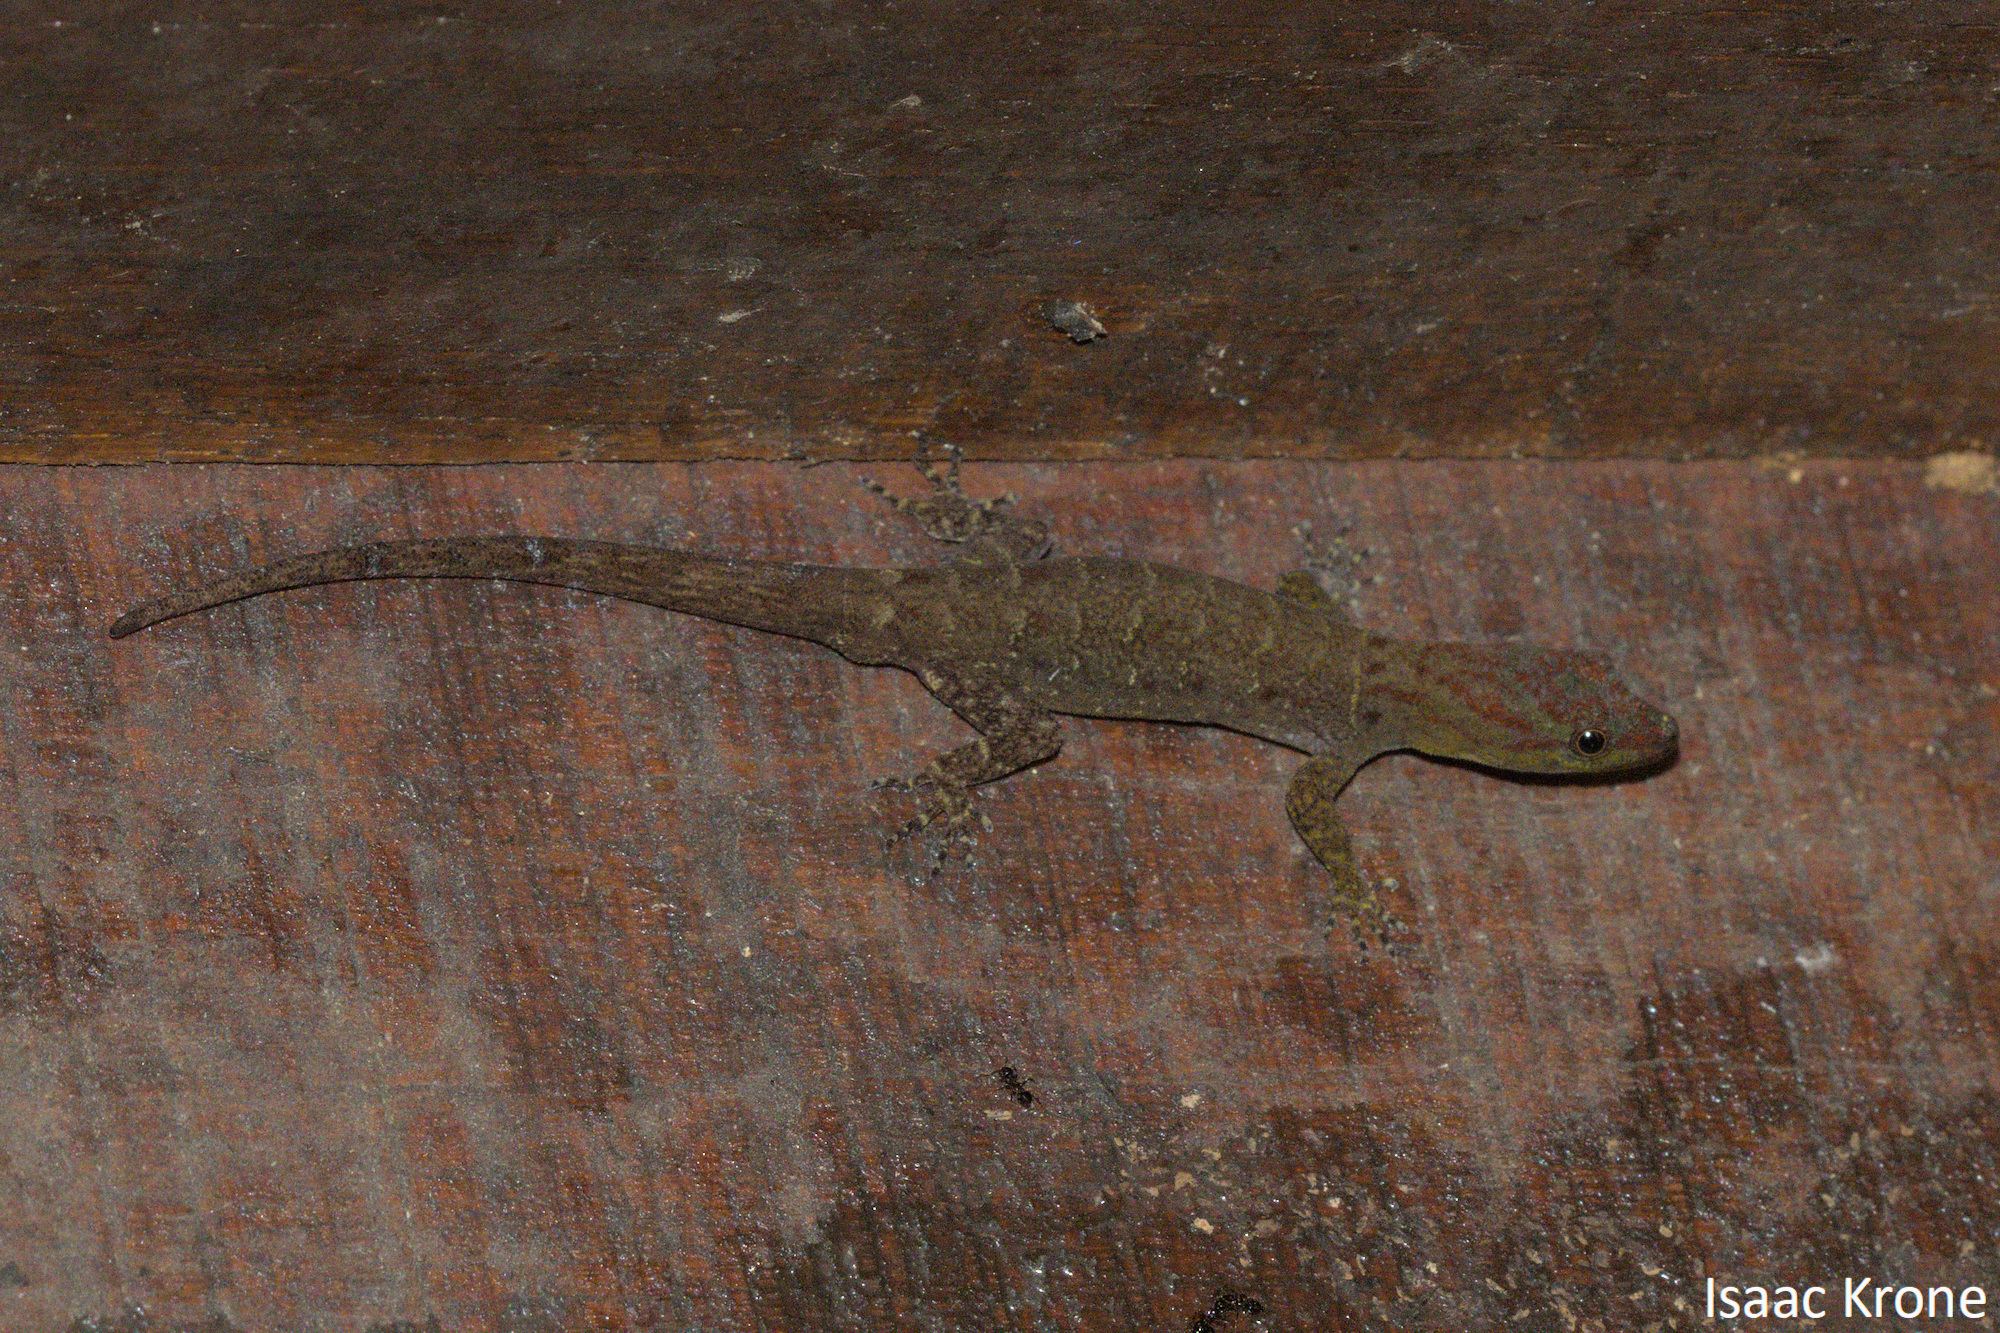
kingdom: Animalia
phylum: Chordata
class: Squamata
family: Sphaerodactylidae
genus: Gonatodes
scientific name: Gonatodes humeralis
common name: South american clawed gecko
